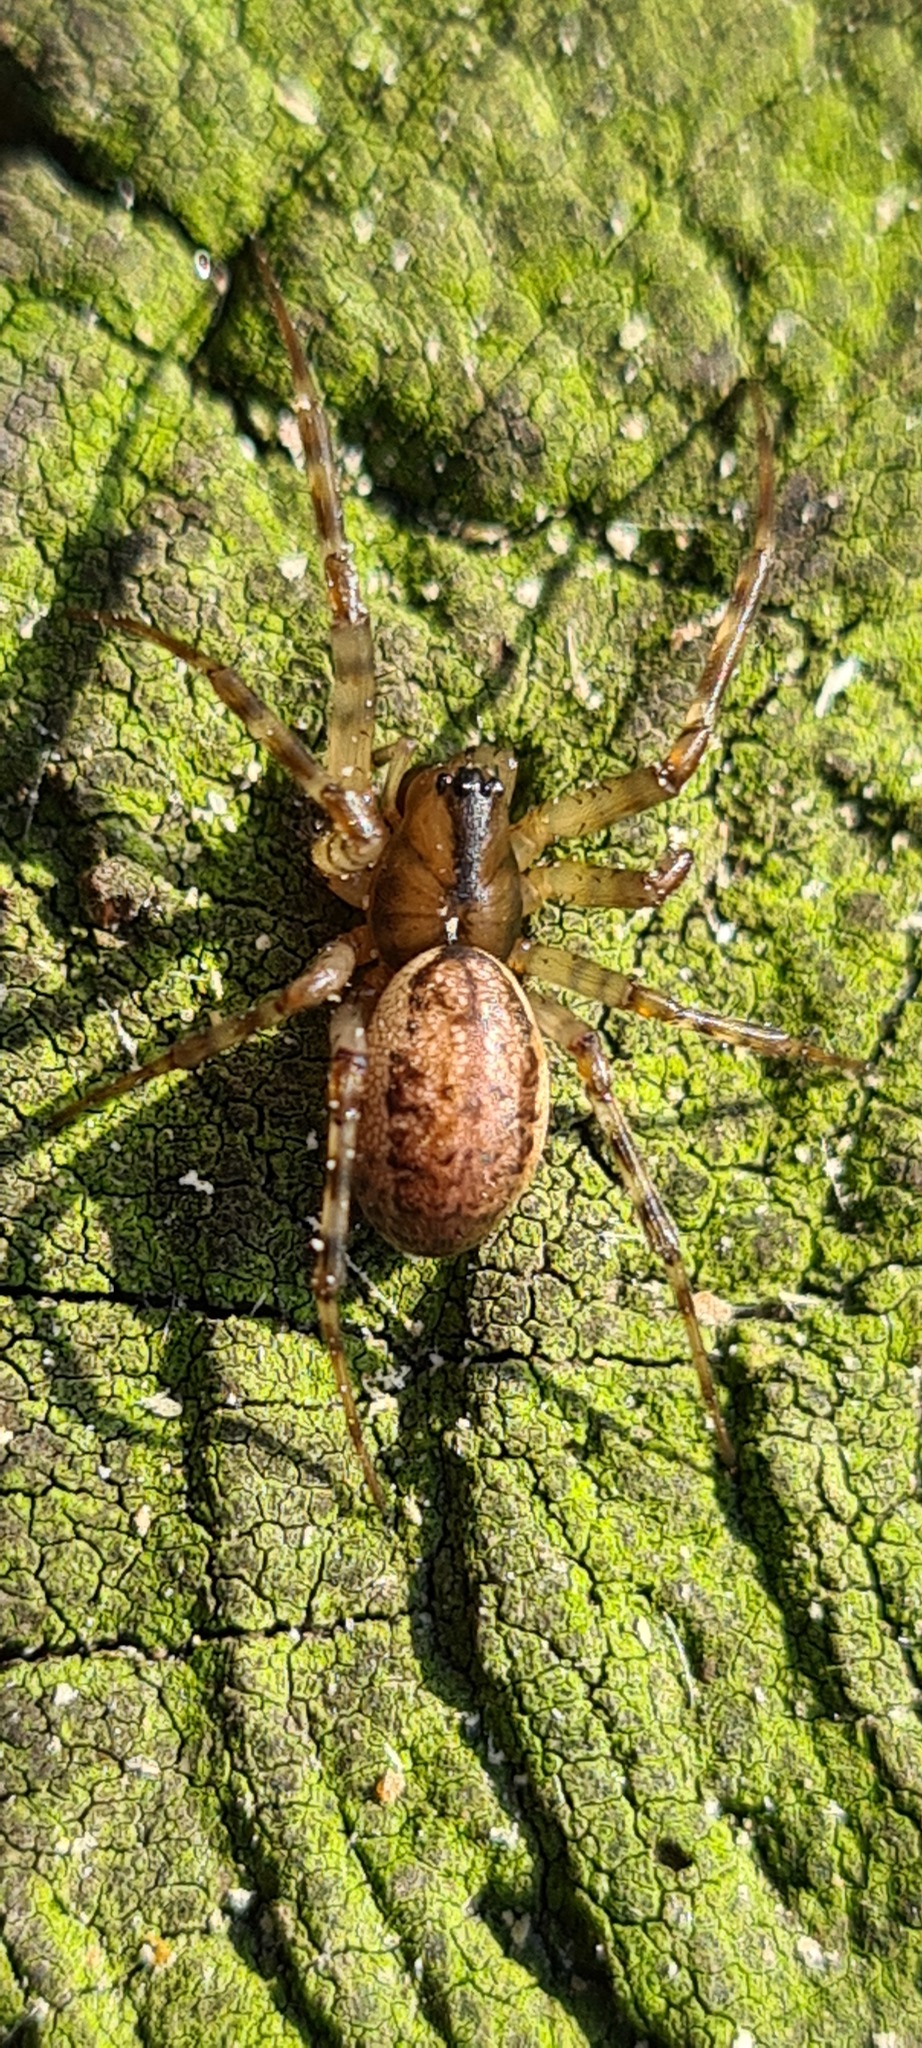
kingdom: Animalia
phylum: Arthropoda
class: Arachnida
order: Araneae
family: Linyphiidae
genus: Neriene
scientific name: Neriene montana
